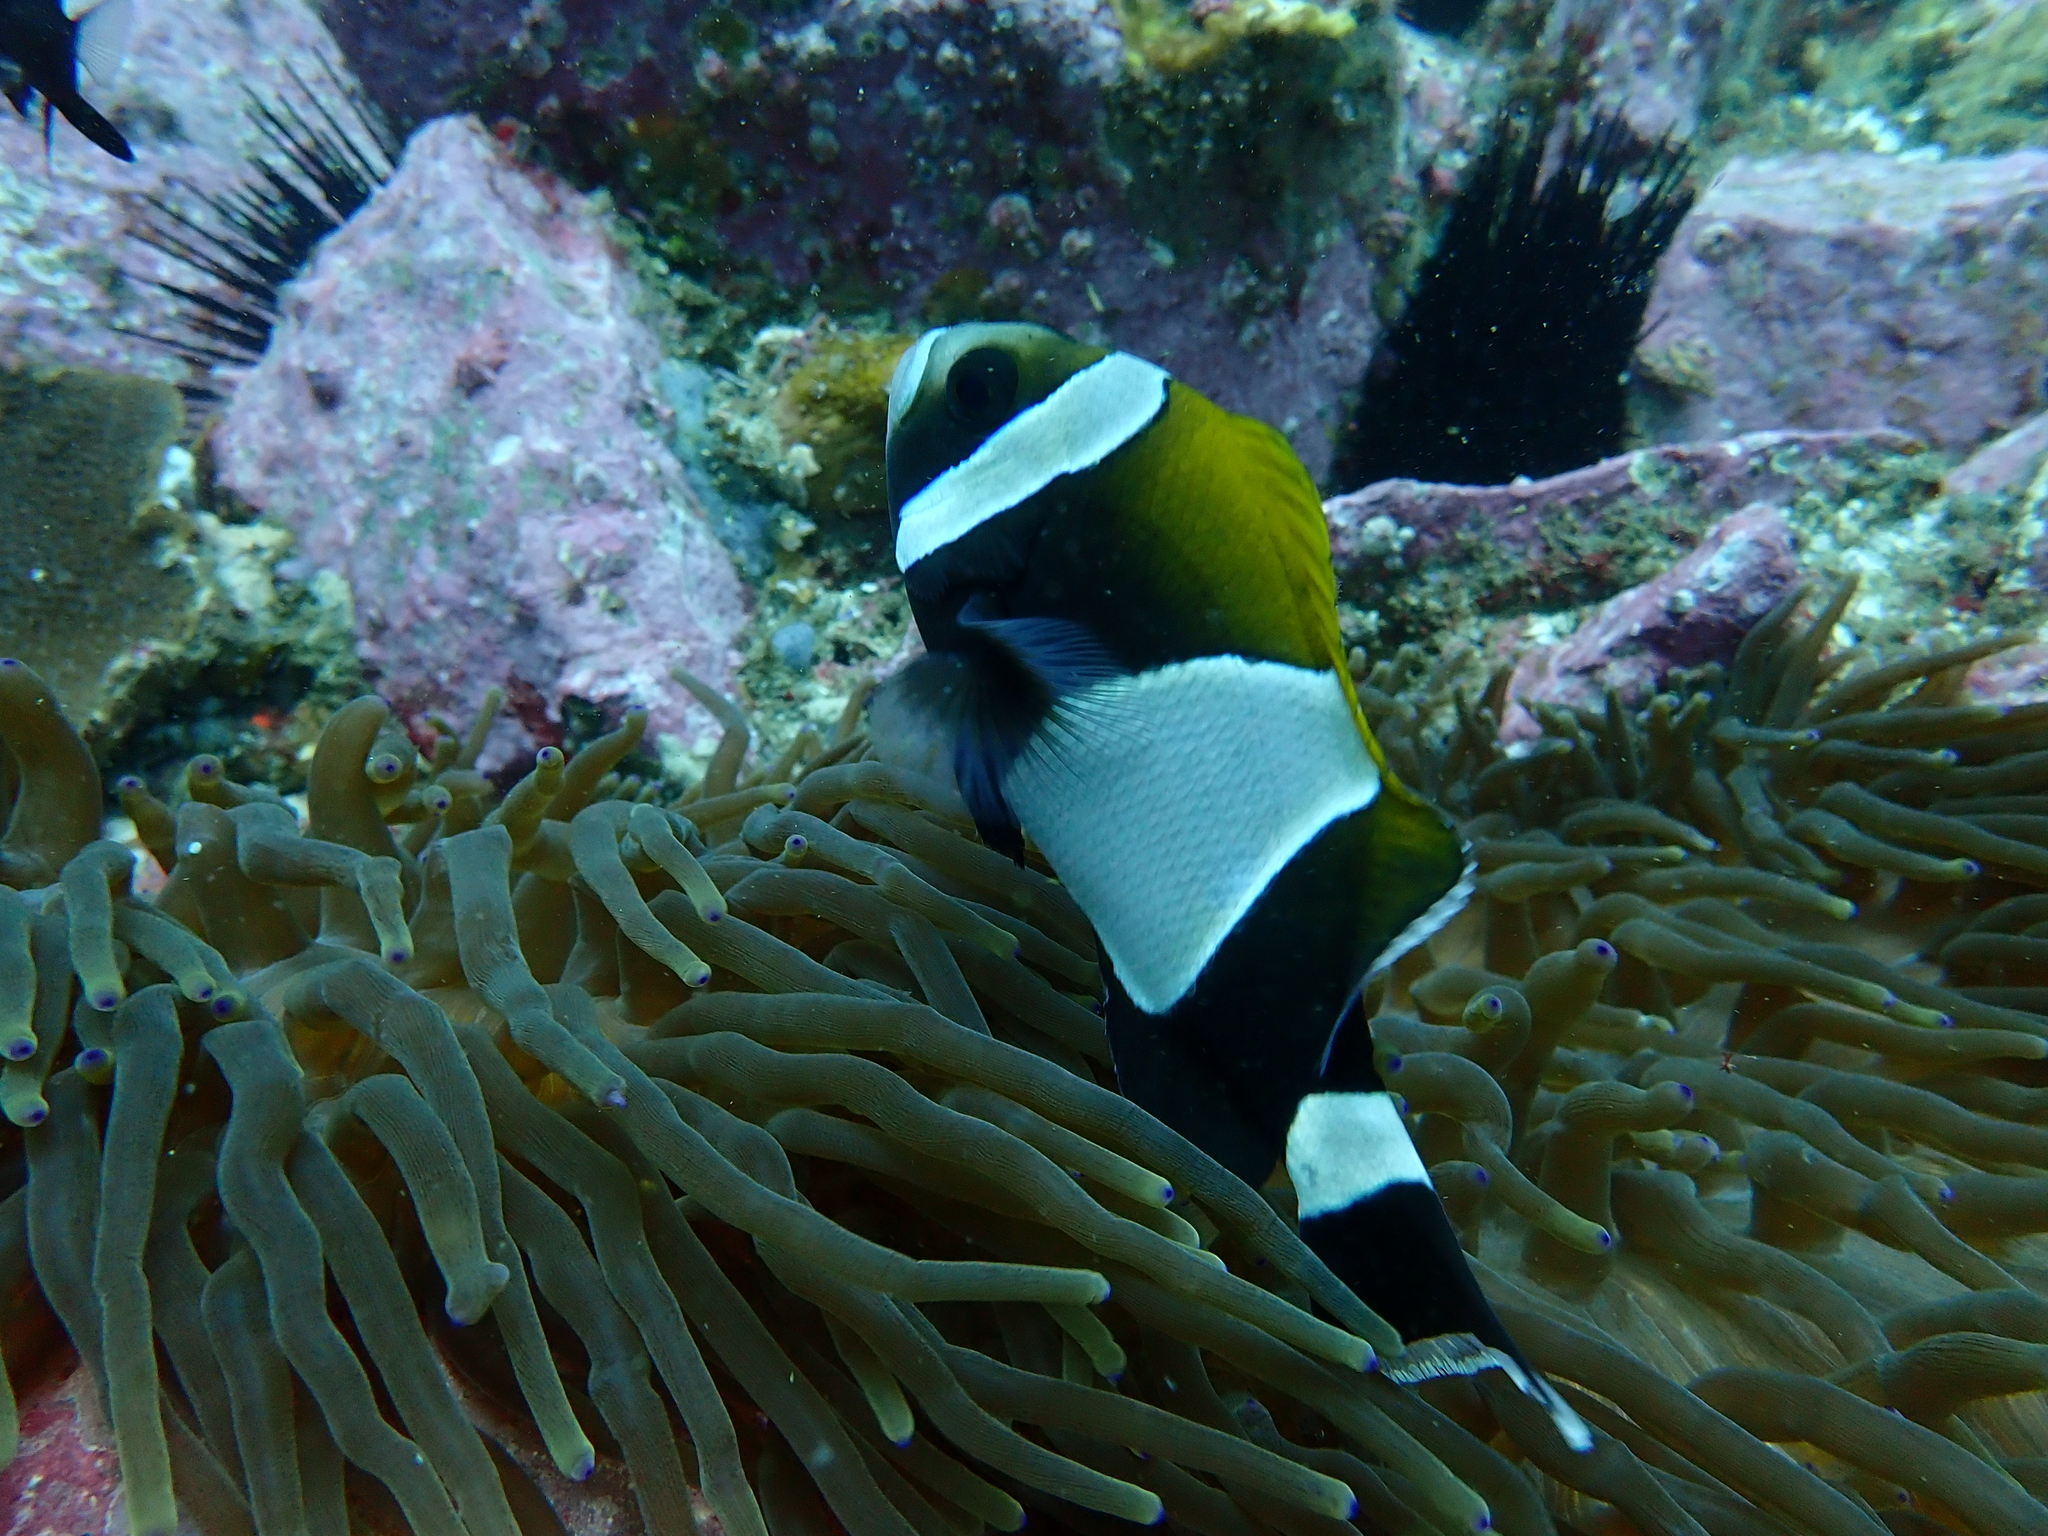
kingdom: Animalia
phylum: Chordata
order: Perciformes
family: Pomacentridae
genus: Amphiprion
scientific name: Amphiprion latezonatus
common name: Wide-band anemonefish
